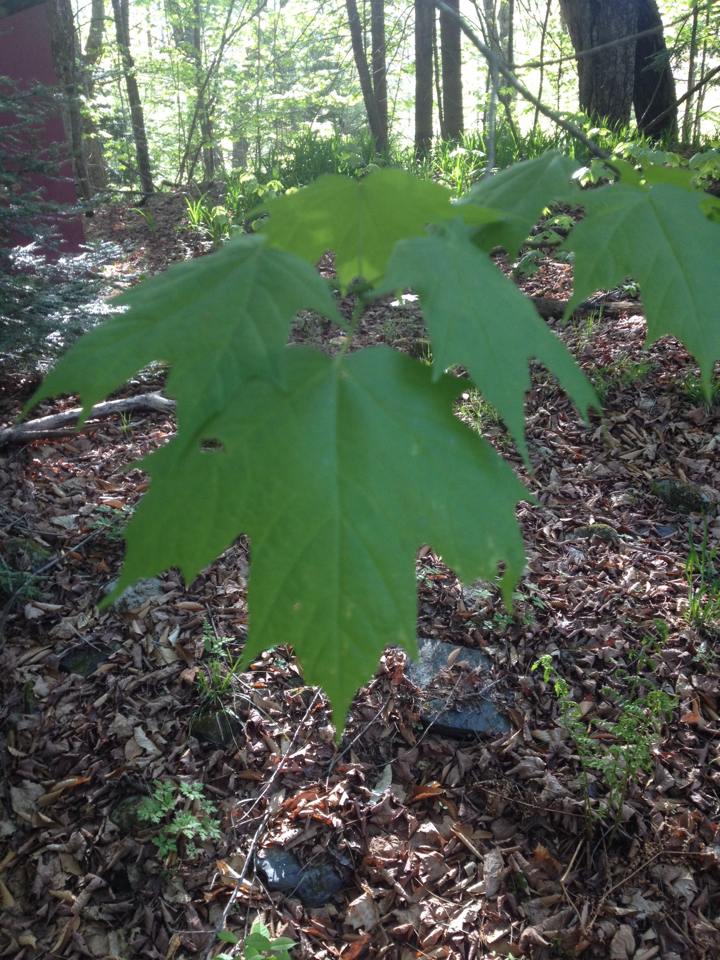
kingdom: Plantae
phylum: Tracheophyta
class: Magnoliopsida
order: Sapindales
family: Sapindaceae
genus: Acer
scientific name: Acer saccharum
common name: Sugar maple
